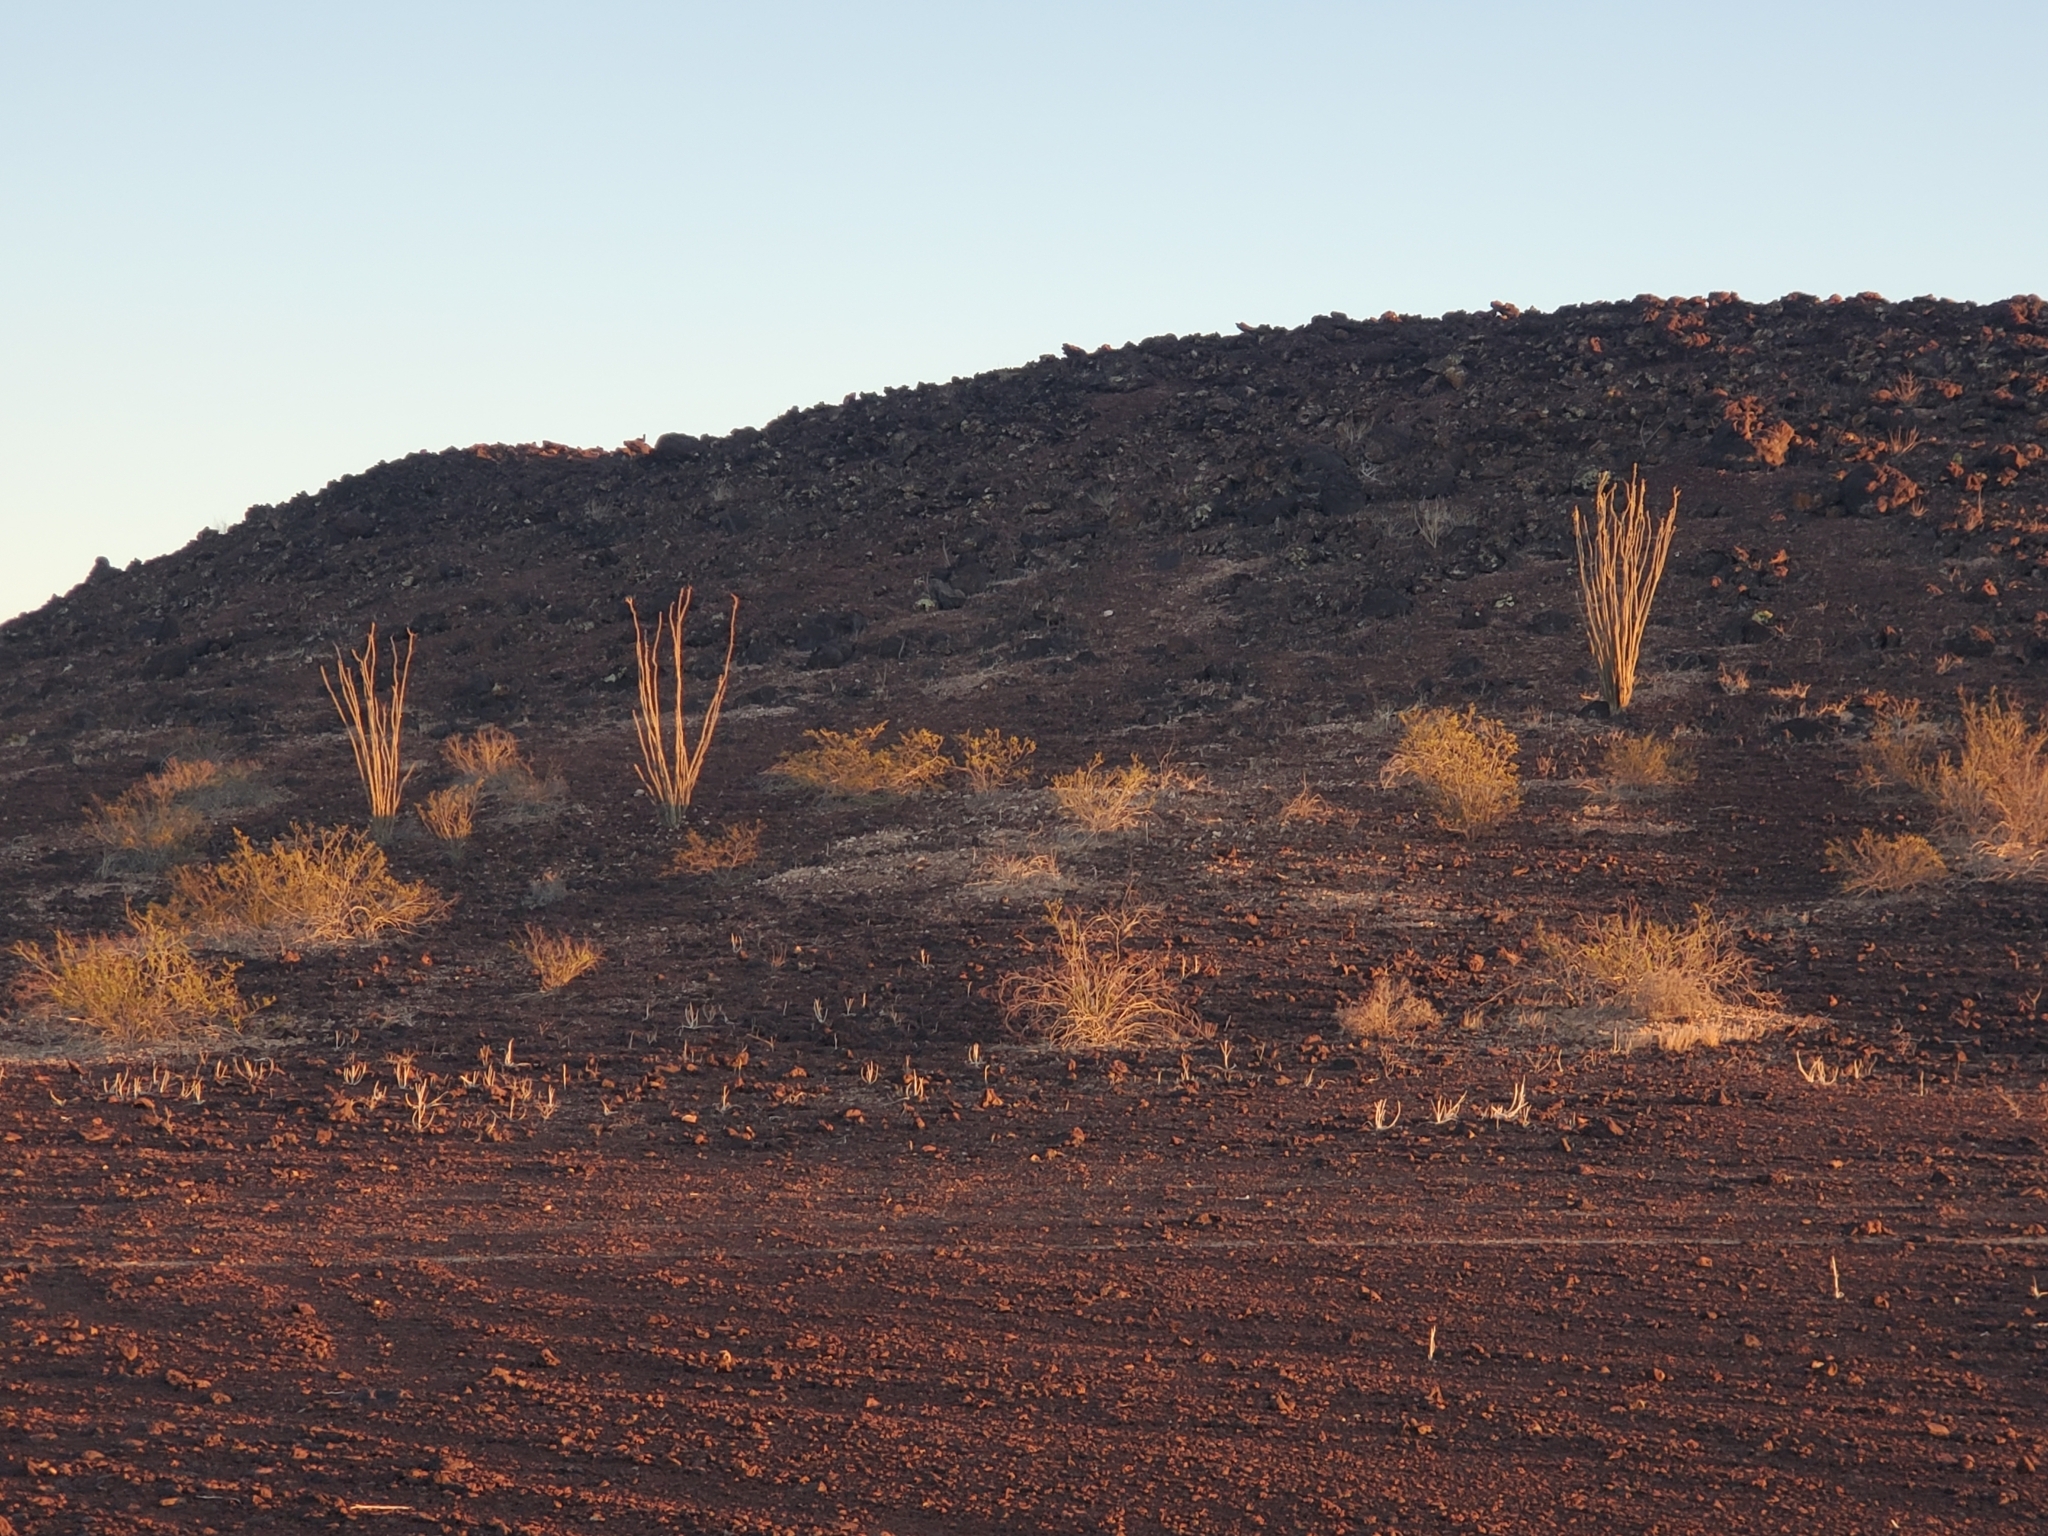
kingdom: Plantae
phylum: Tracheophyta
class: Magnoliopsida
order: Ericales
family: Fouquieriaceae
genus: Fouquieria
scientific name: Fouquieria splendens
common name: Vine-cactus
